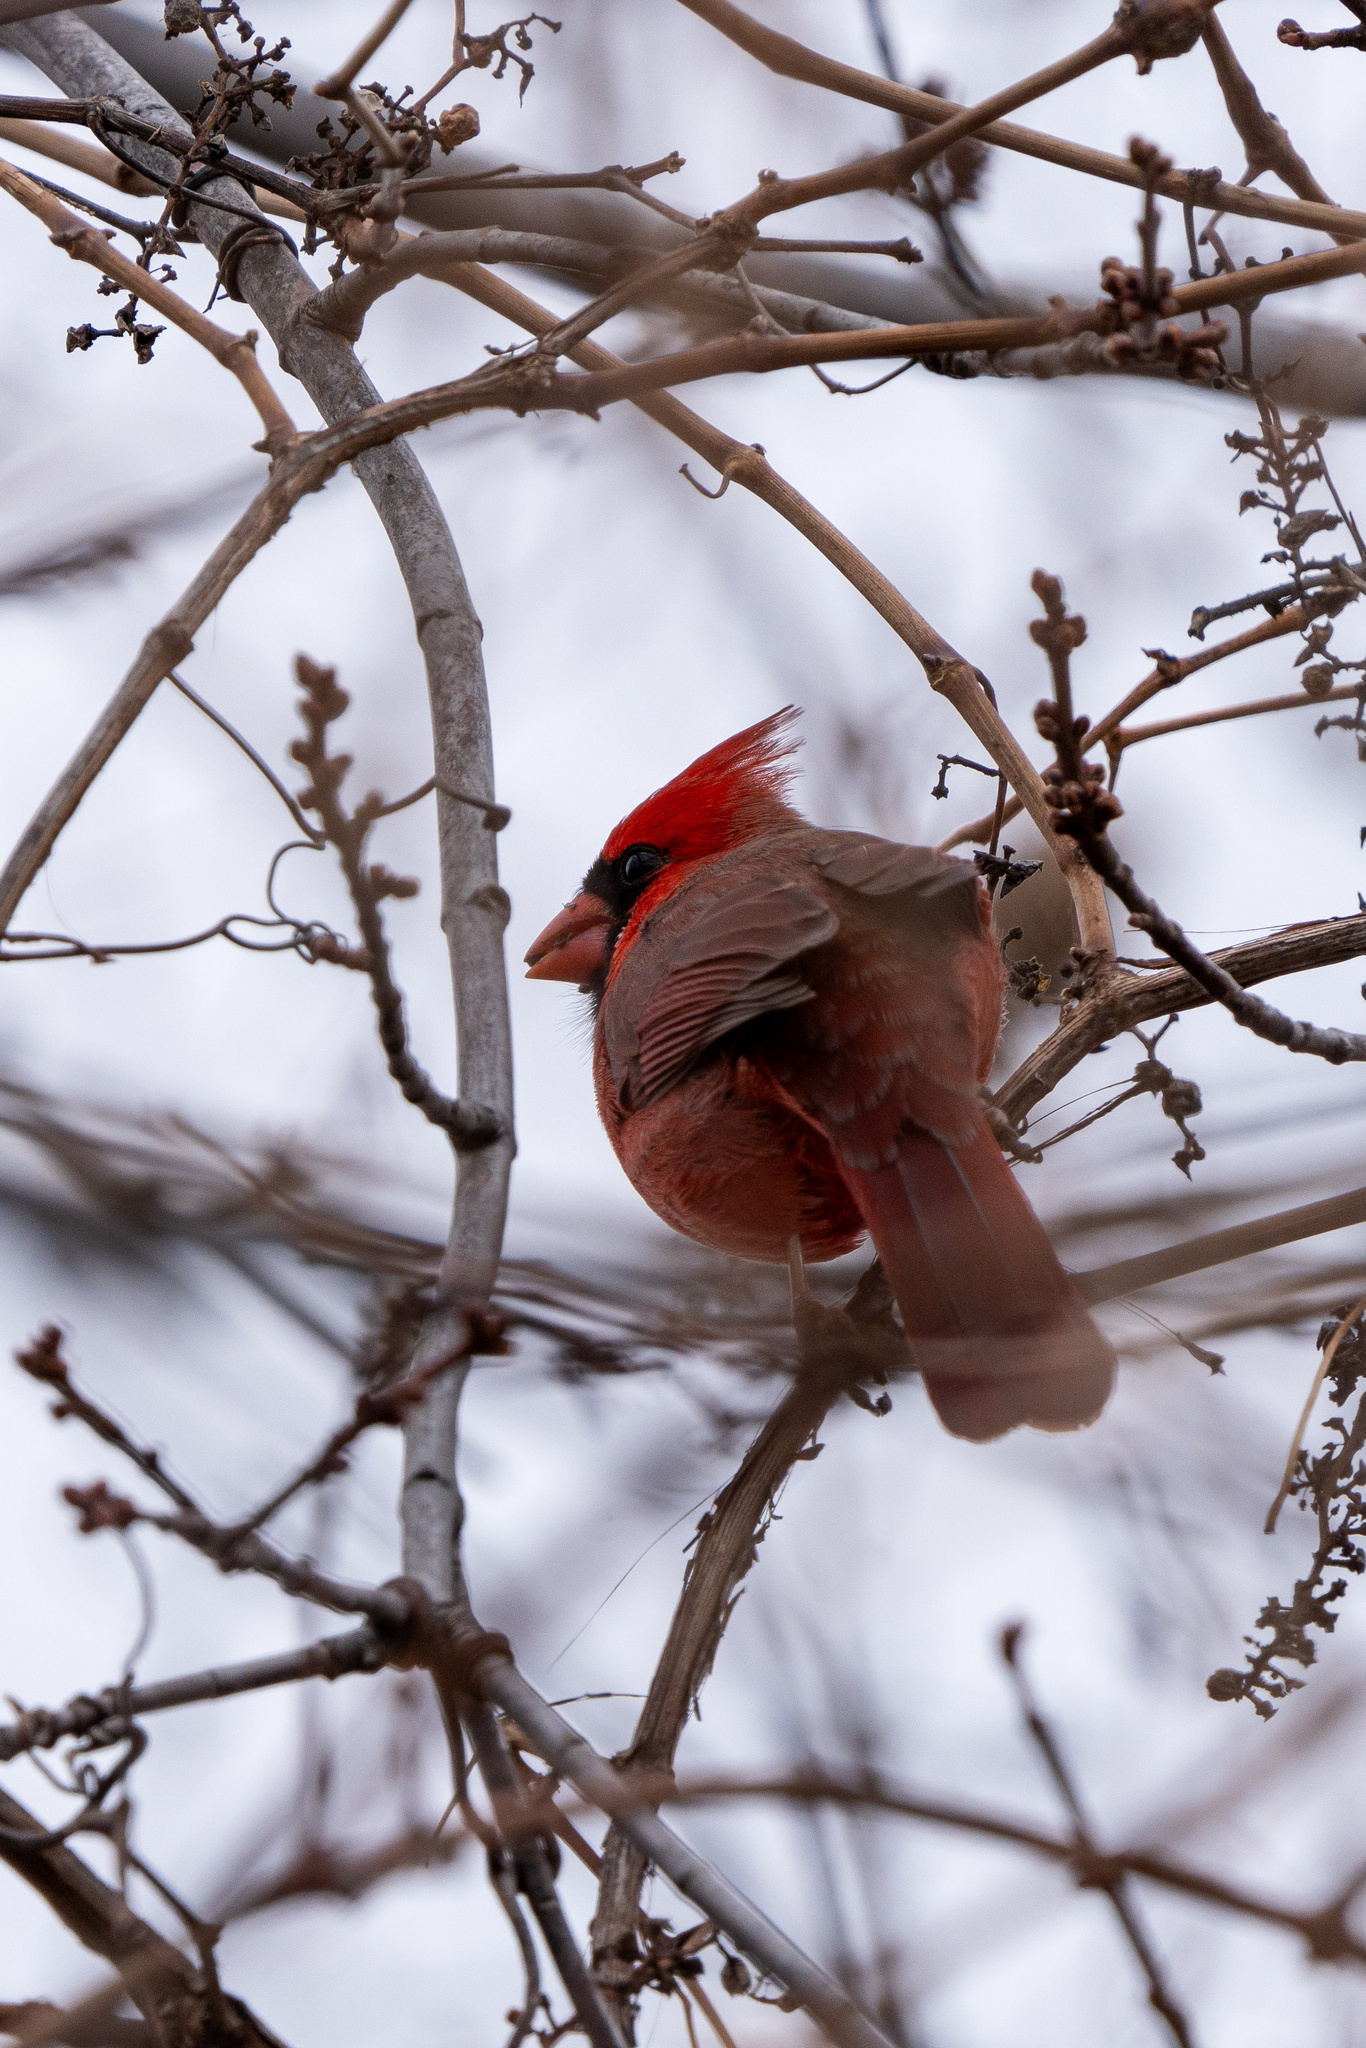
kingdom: Animalia
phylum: Chordata
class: Aves
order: Passeriformes
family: Cardinalidae
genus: Cardinalis
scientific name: Cardinalis cardinalis
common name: Northern cardinal
